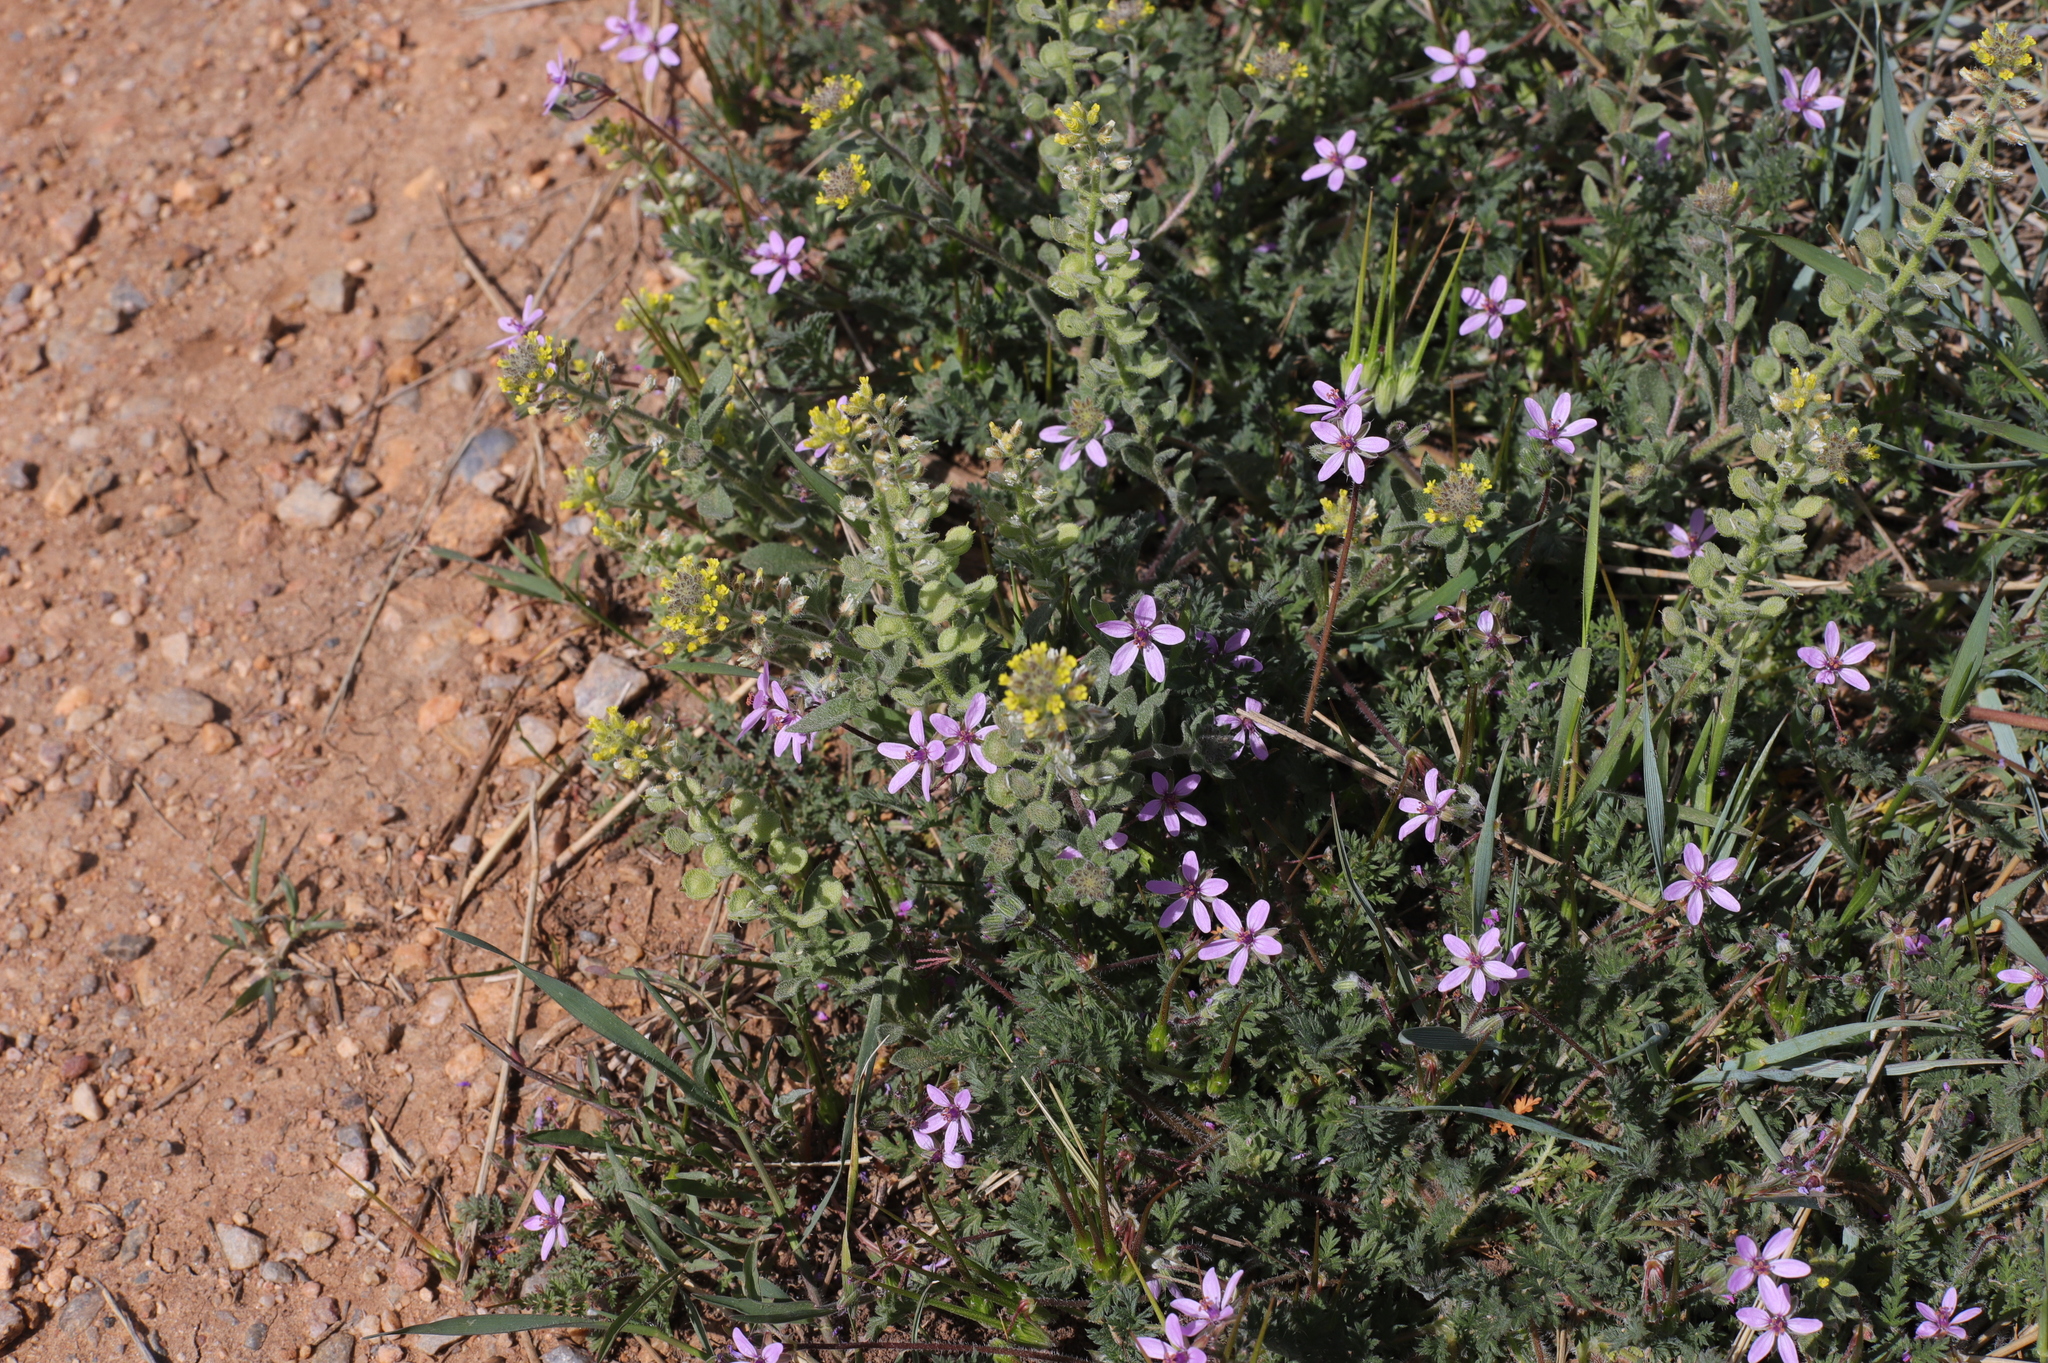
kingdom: Plantae
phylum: Tracheophyta
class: Magnoliopsida
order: Geraniales
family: Geraniaceae
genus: Erodium
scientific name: Erodium cicutarium
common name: Common stork's-bill
